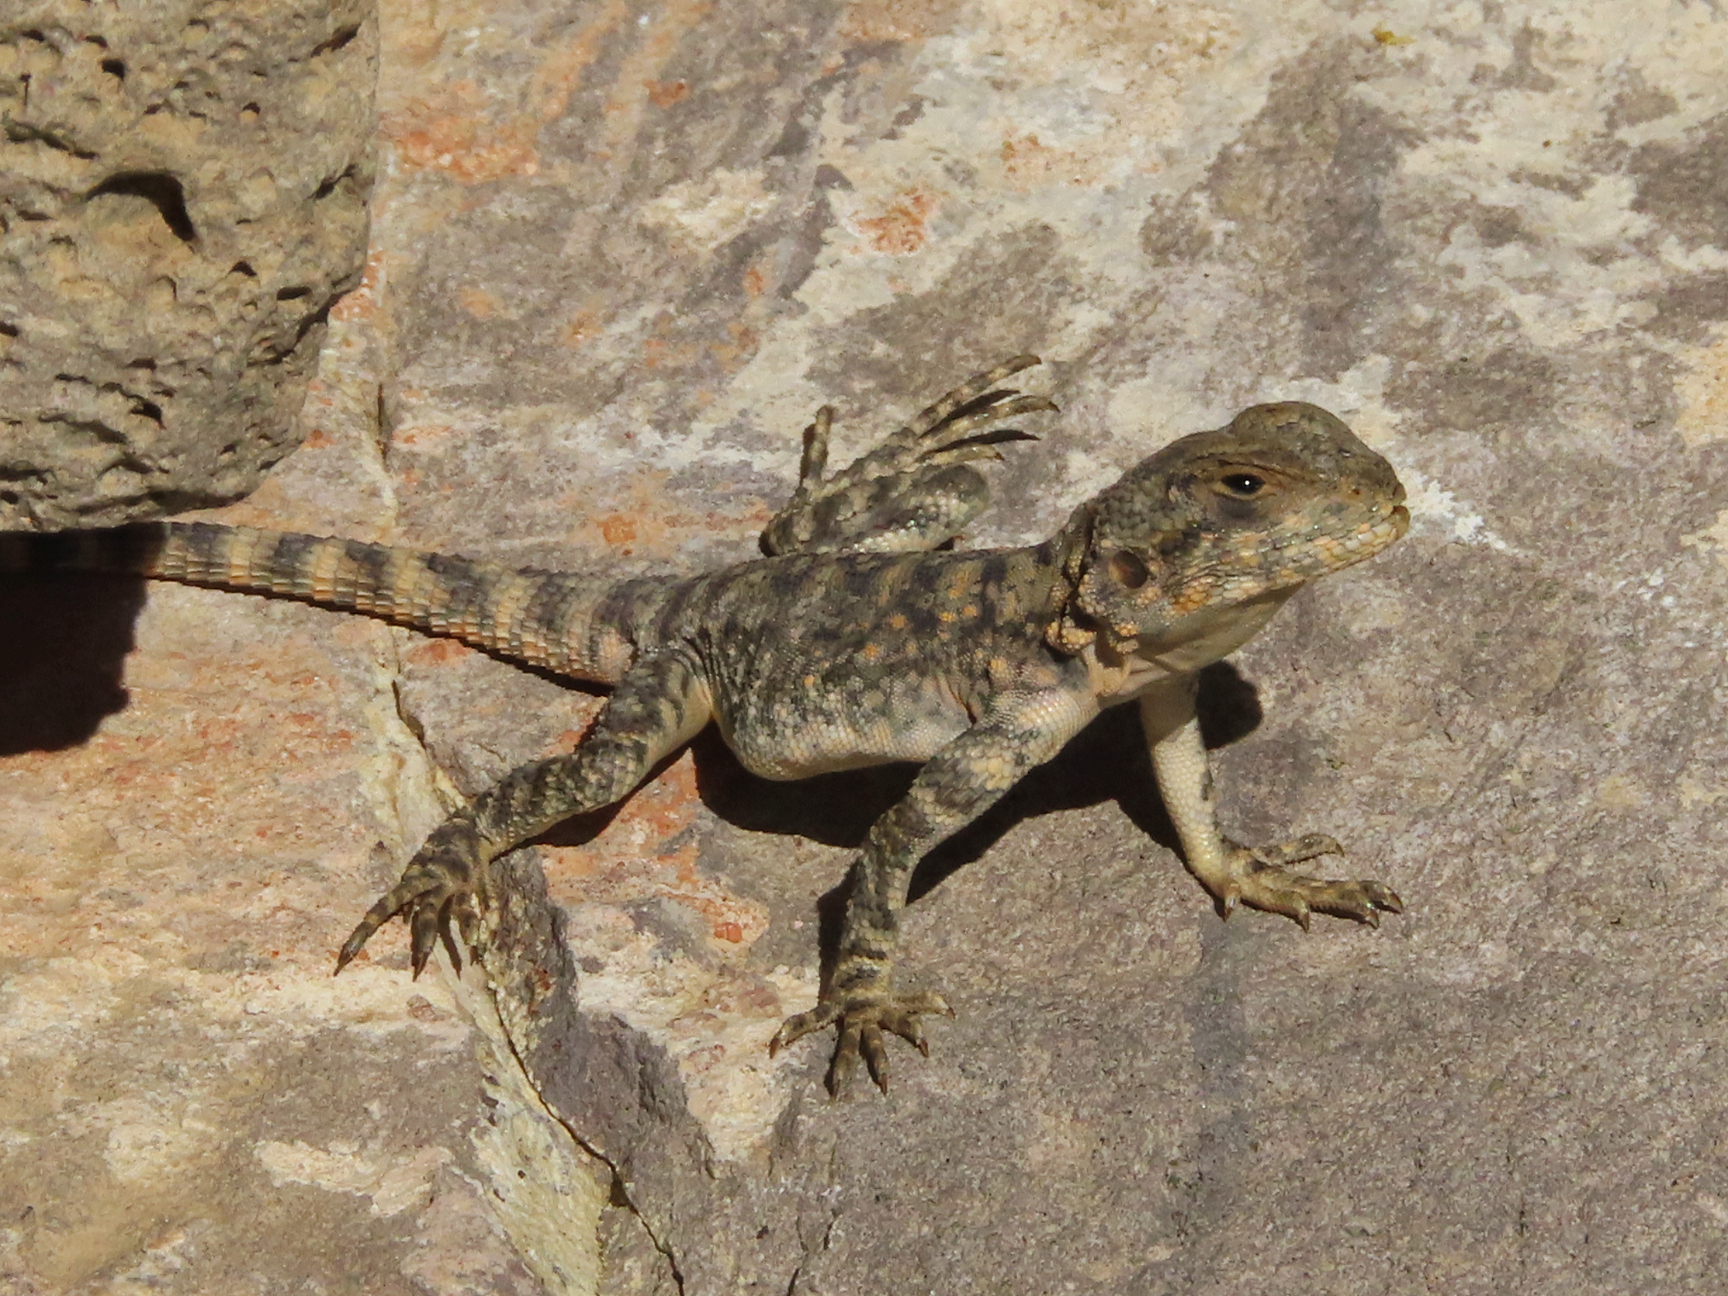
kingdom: Animalia
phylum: Chordata
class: Squamata
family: Agamidae
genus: Paralaudakia
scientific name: Paralaudakia caucasia
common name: Caucasian agama
